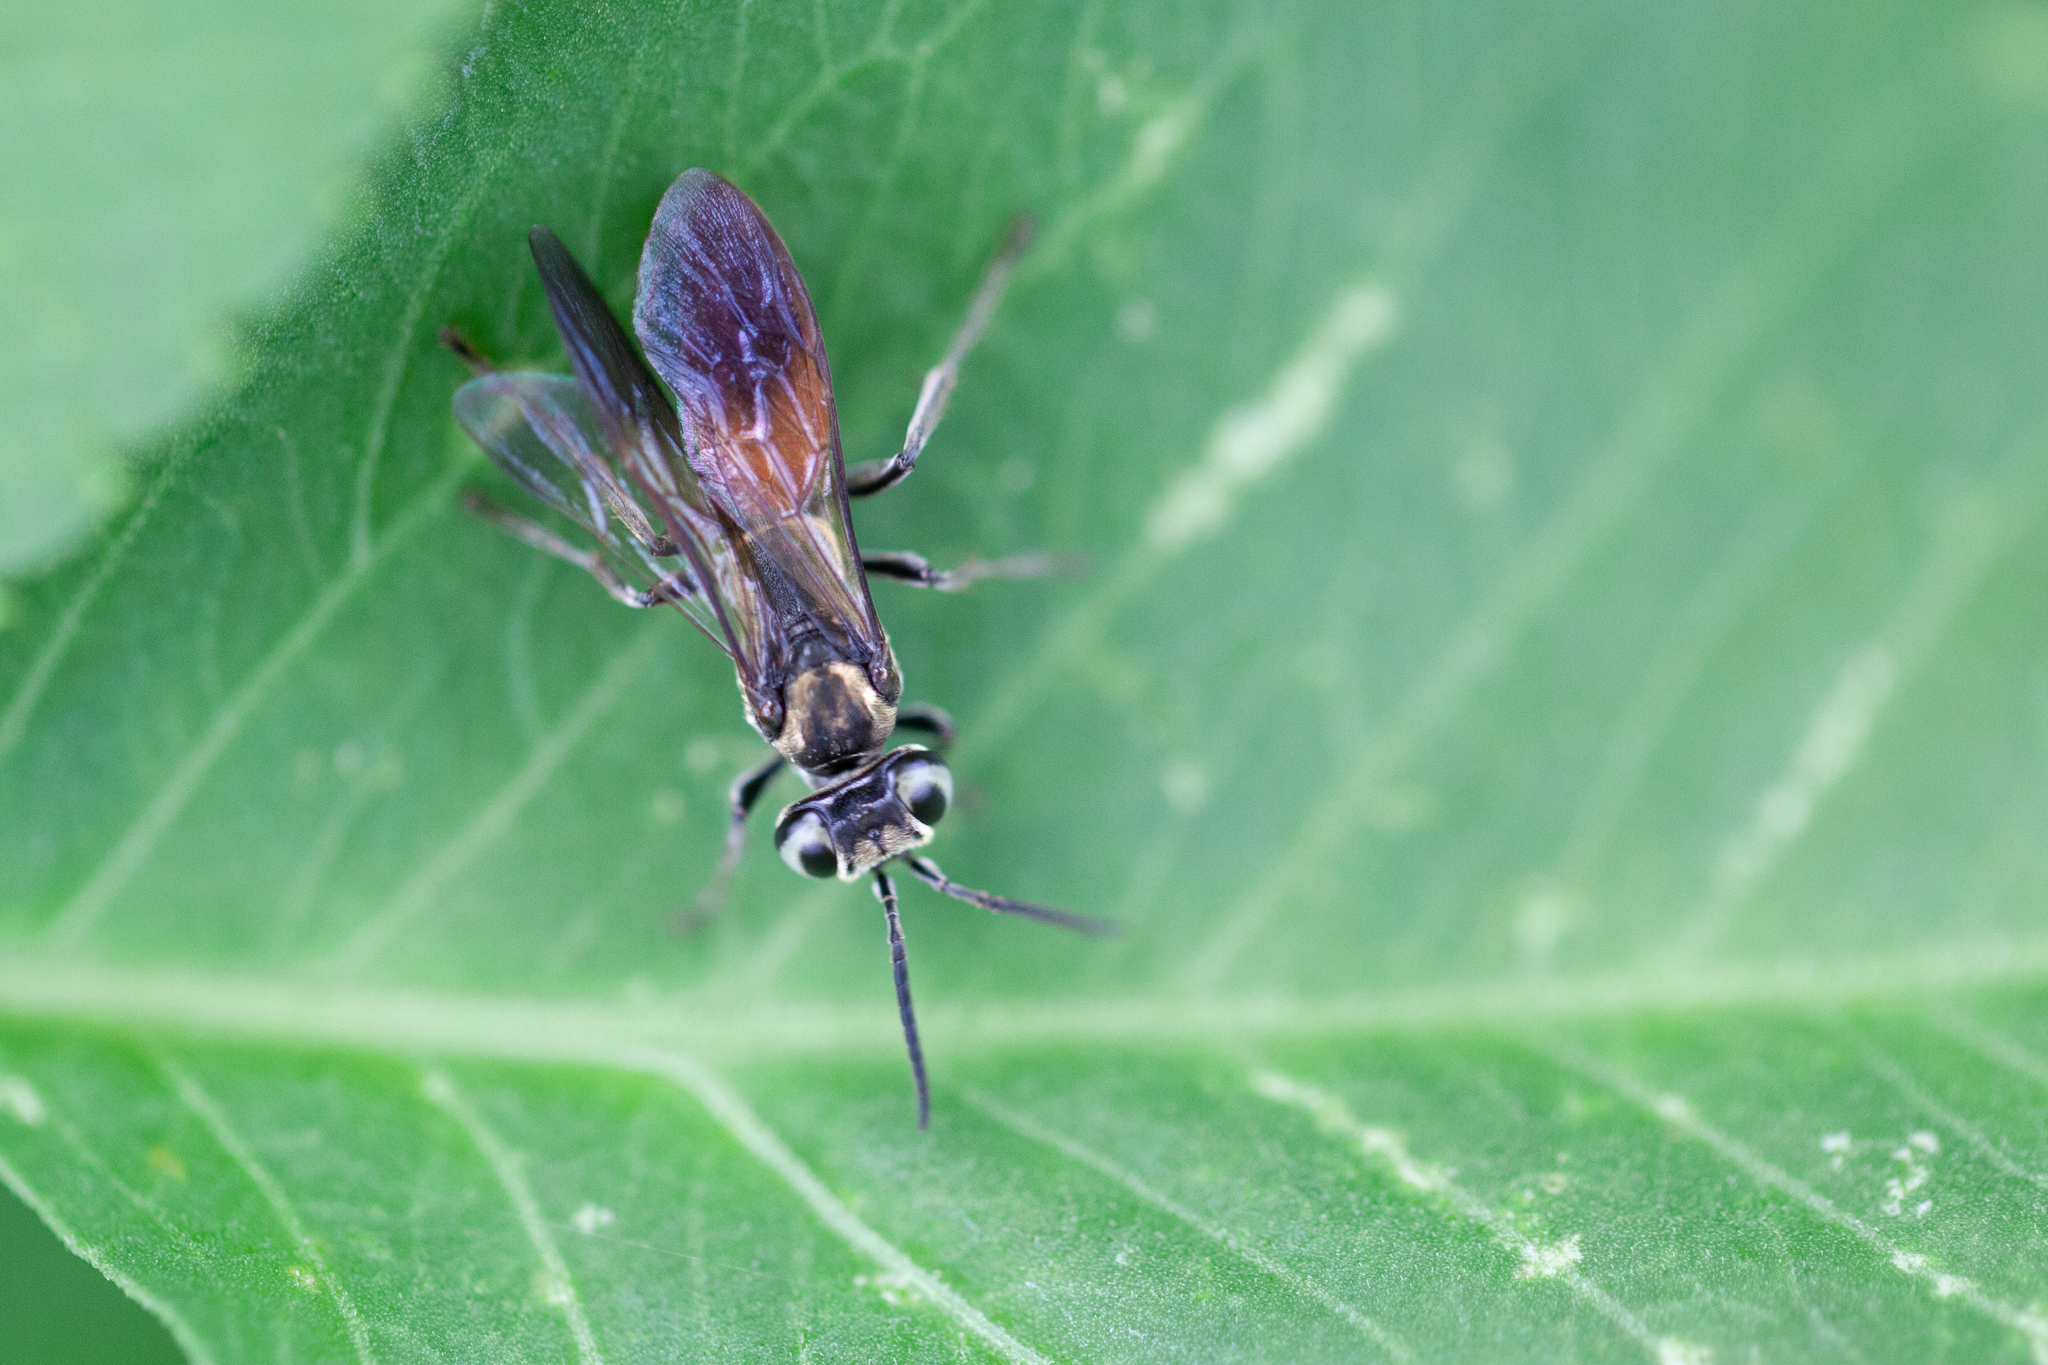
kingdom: Animalia
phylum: Arthropoda
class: Insecta
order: Hymenoptera
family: Crabronidae
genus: Larra
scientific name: Larra bicolor
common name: Wasp
